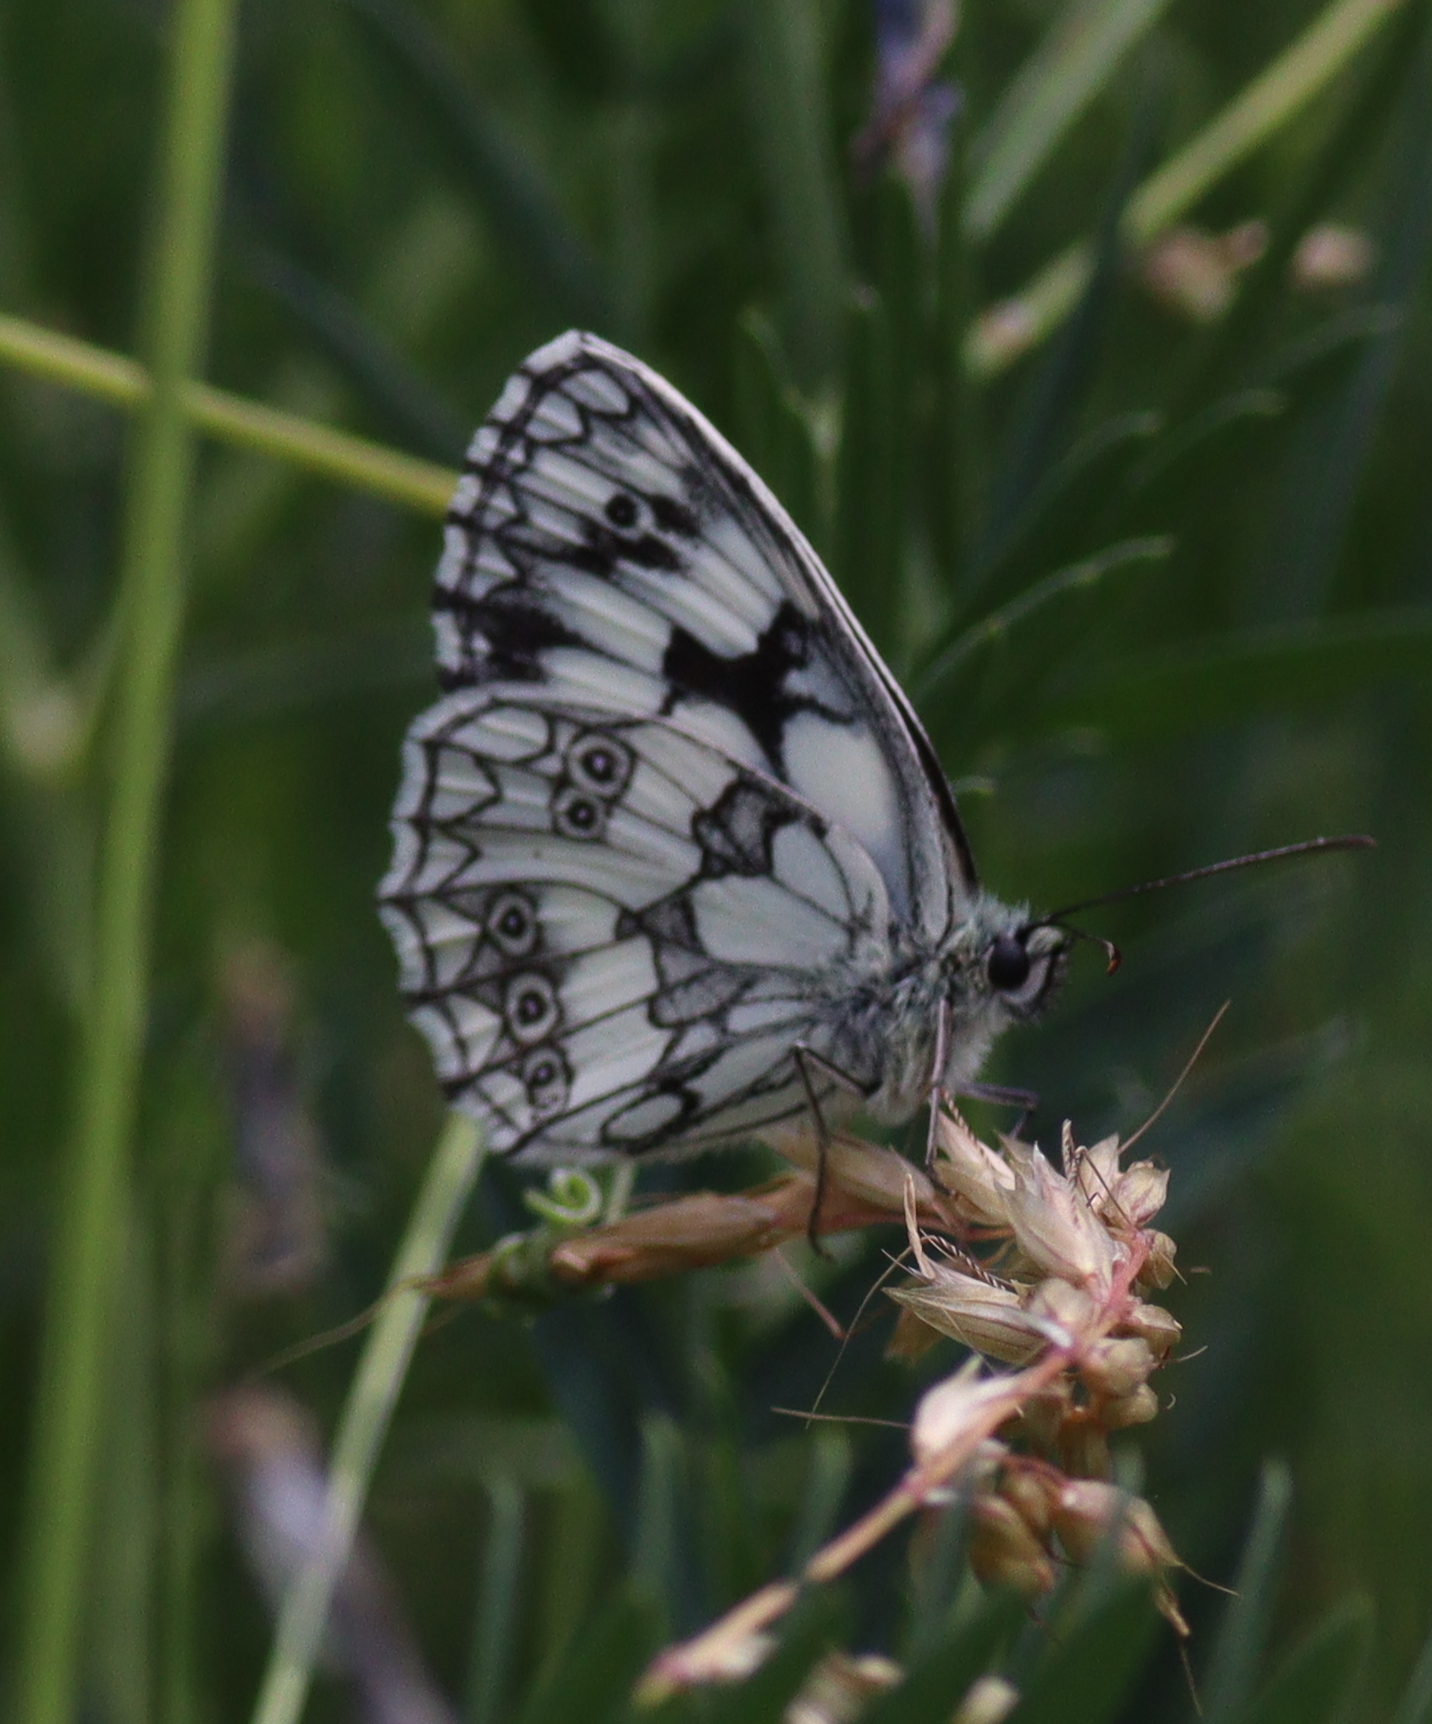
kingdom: Animalia
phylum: Arthropoda
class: Insecta
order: Lepidoptera
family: Nymphalidae
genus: Melanargia
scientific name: Melanargia galathea
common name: Marbled white
